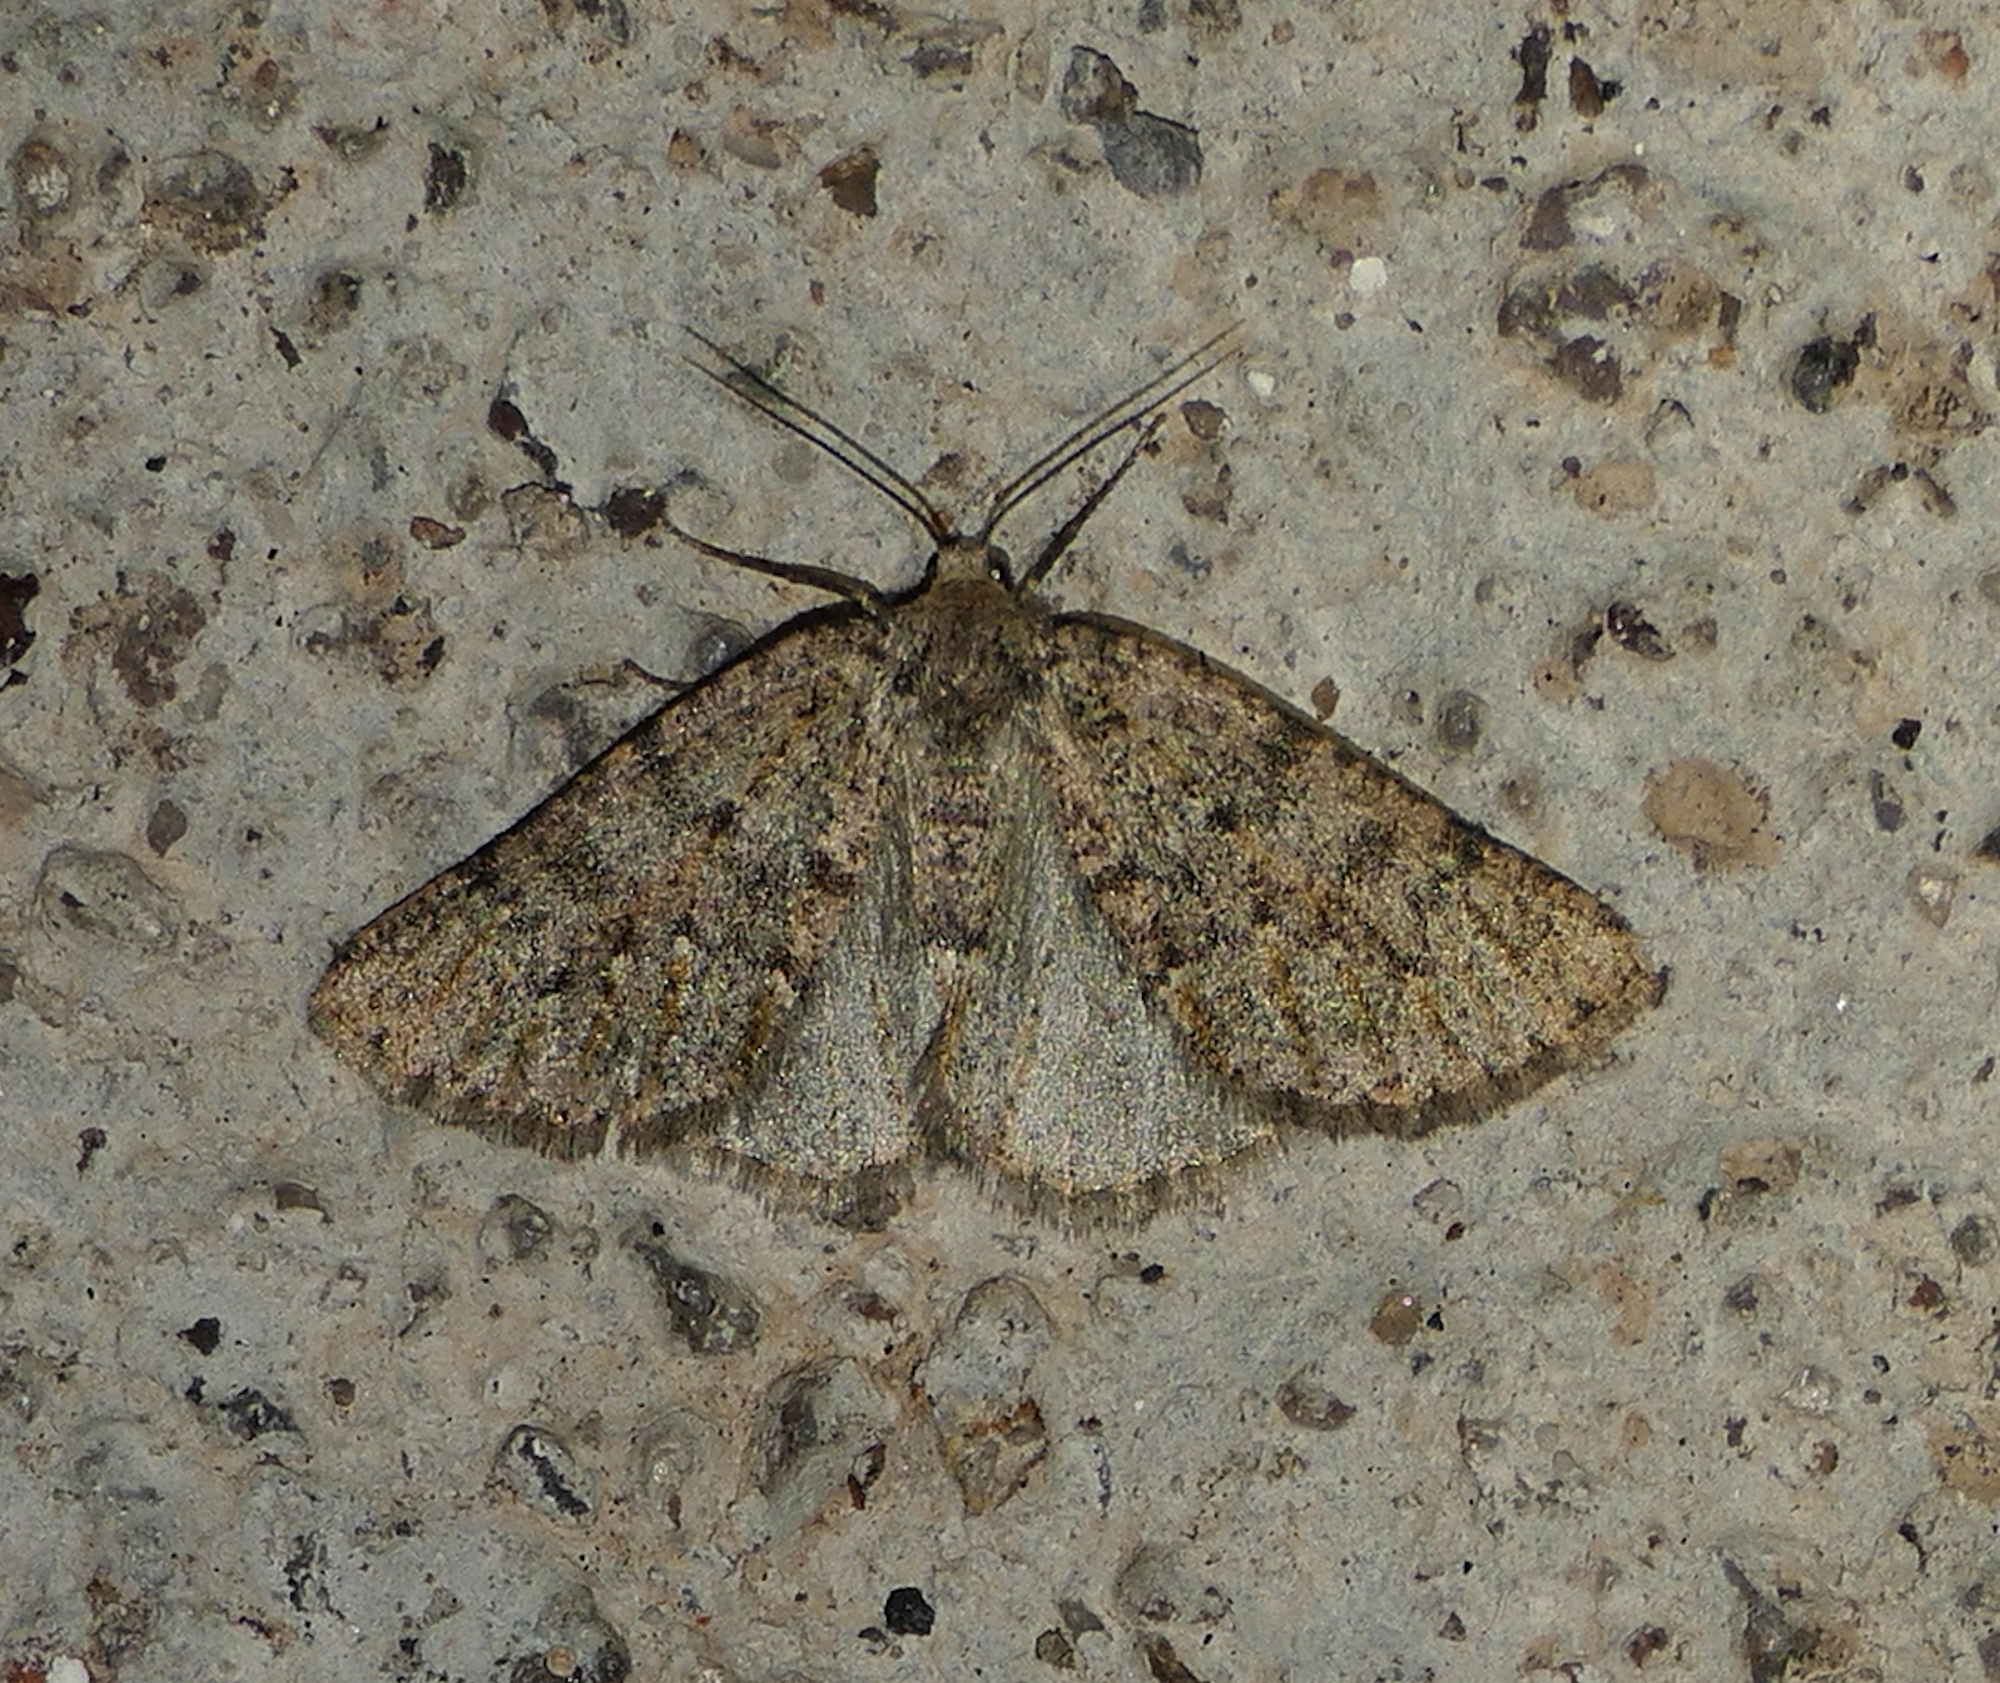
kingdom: Animalia
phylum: Arthropoda
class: Insecta
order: Lepidoptera
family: Geometridae
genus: Nemeris
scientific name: Nemeris speciosa
